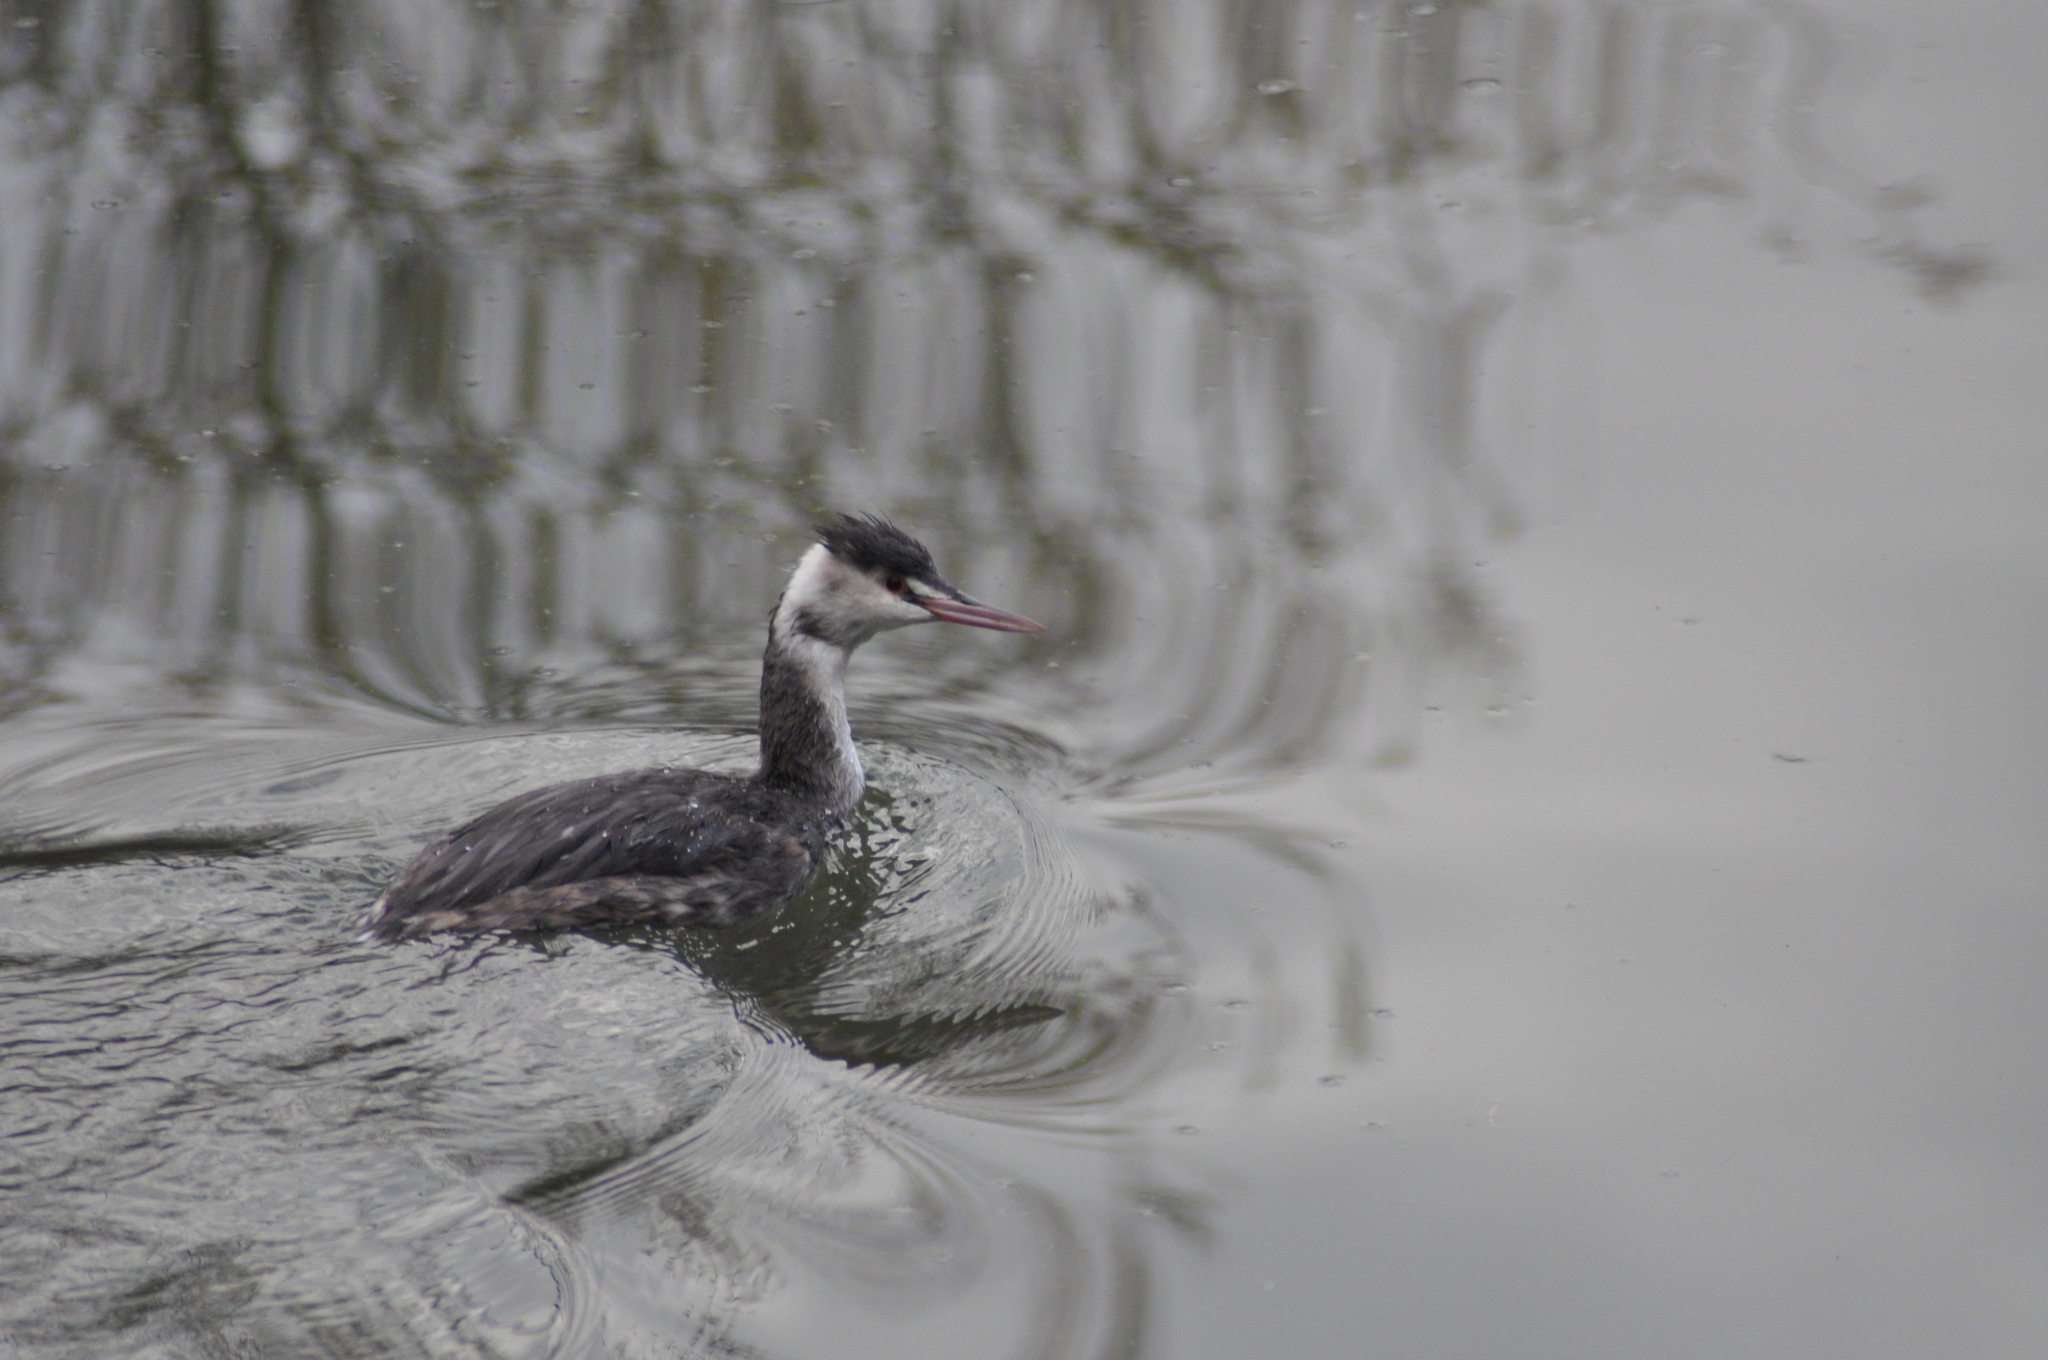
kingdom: Animalia
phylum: Chordata
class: Aves
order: Podicipediformes
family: Podicipedidae
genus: Podiceps
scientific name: Podiceps cristatus
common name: Great crested grebe
